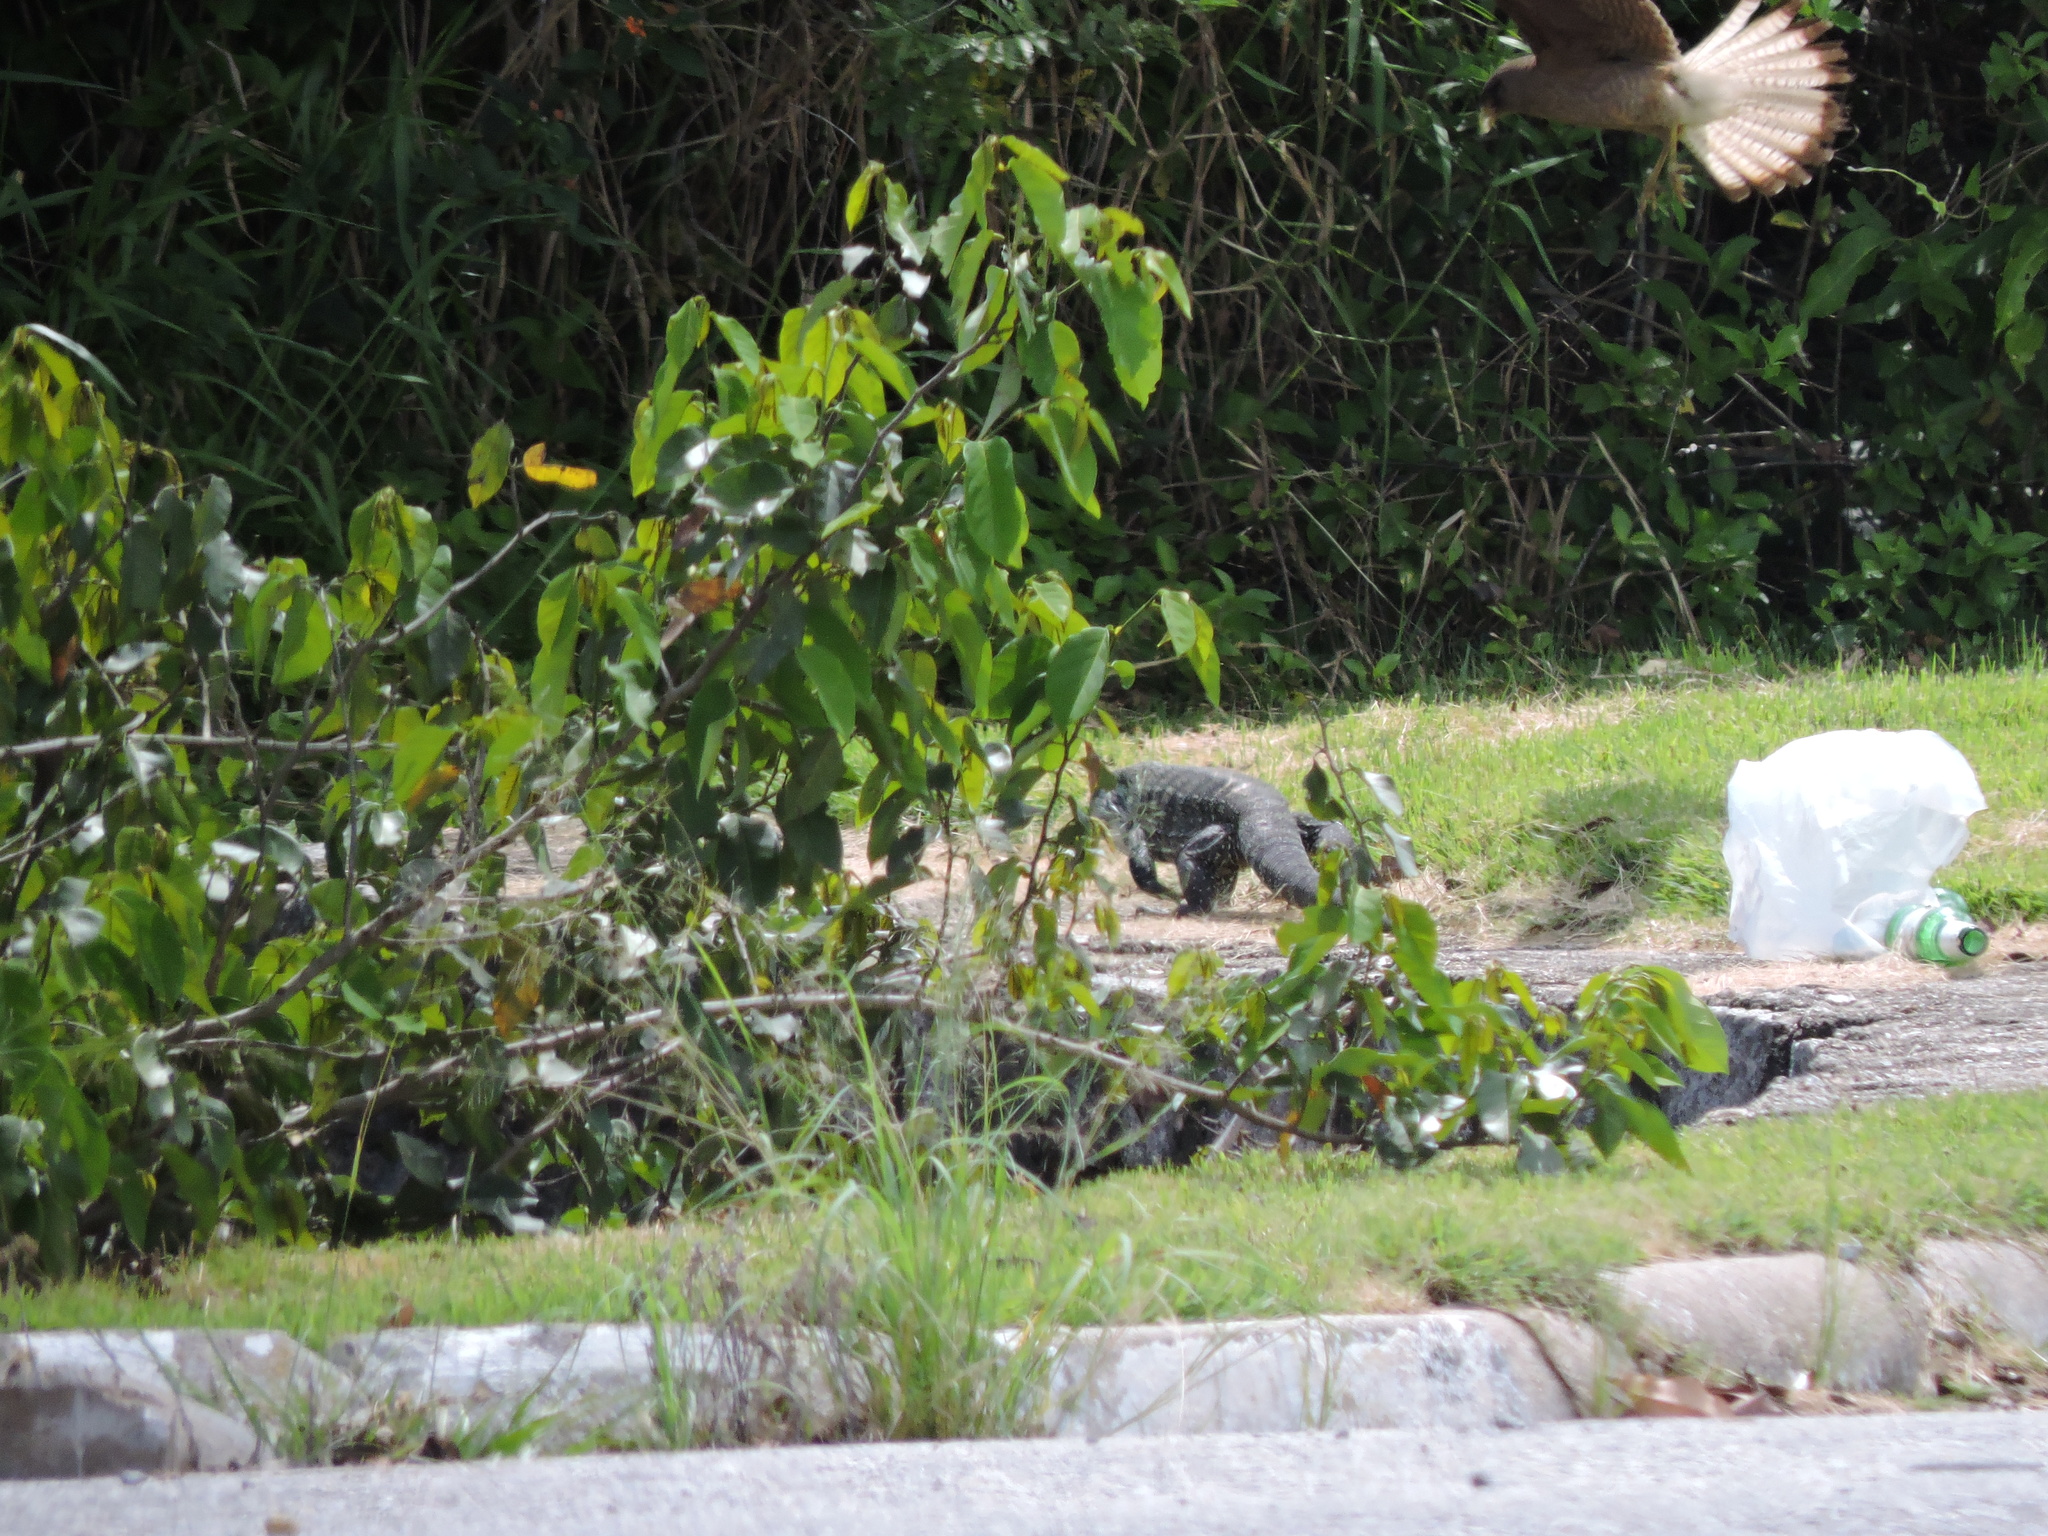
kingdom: Animalia
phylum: Chordata
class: Aves
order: Falconiformes
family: Falconidae
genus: Daptrius
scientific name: Daptrius
